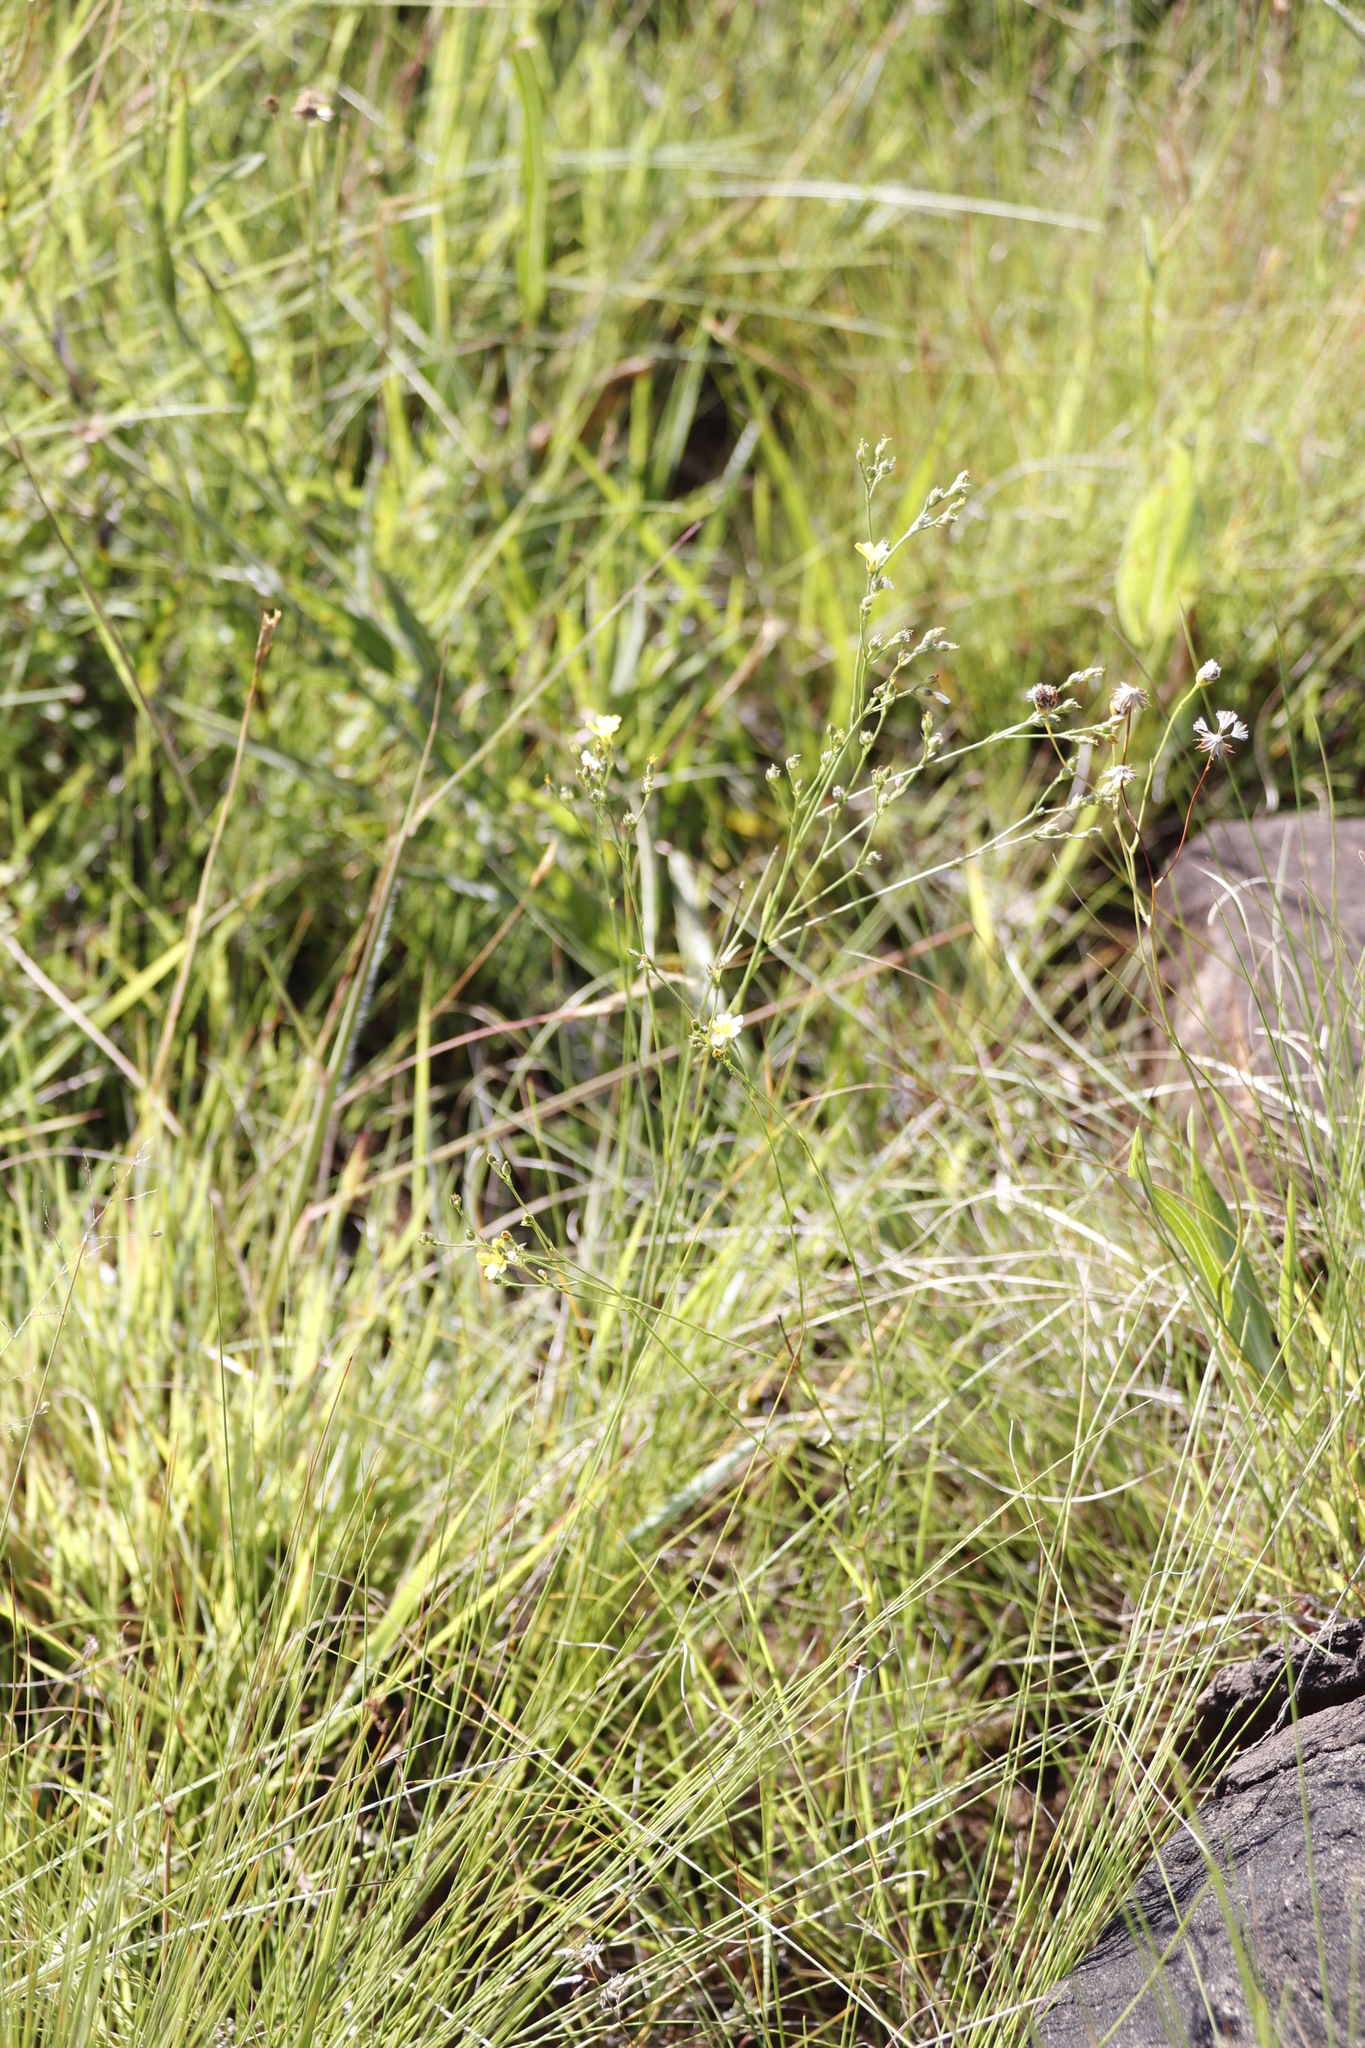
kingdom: Plantae
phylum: Tracheophyta
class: Magnoliopsida
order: Malpighiales
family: Linaceae
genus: Linum
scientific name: Linum thunbergii
